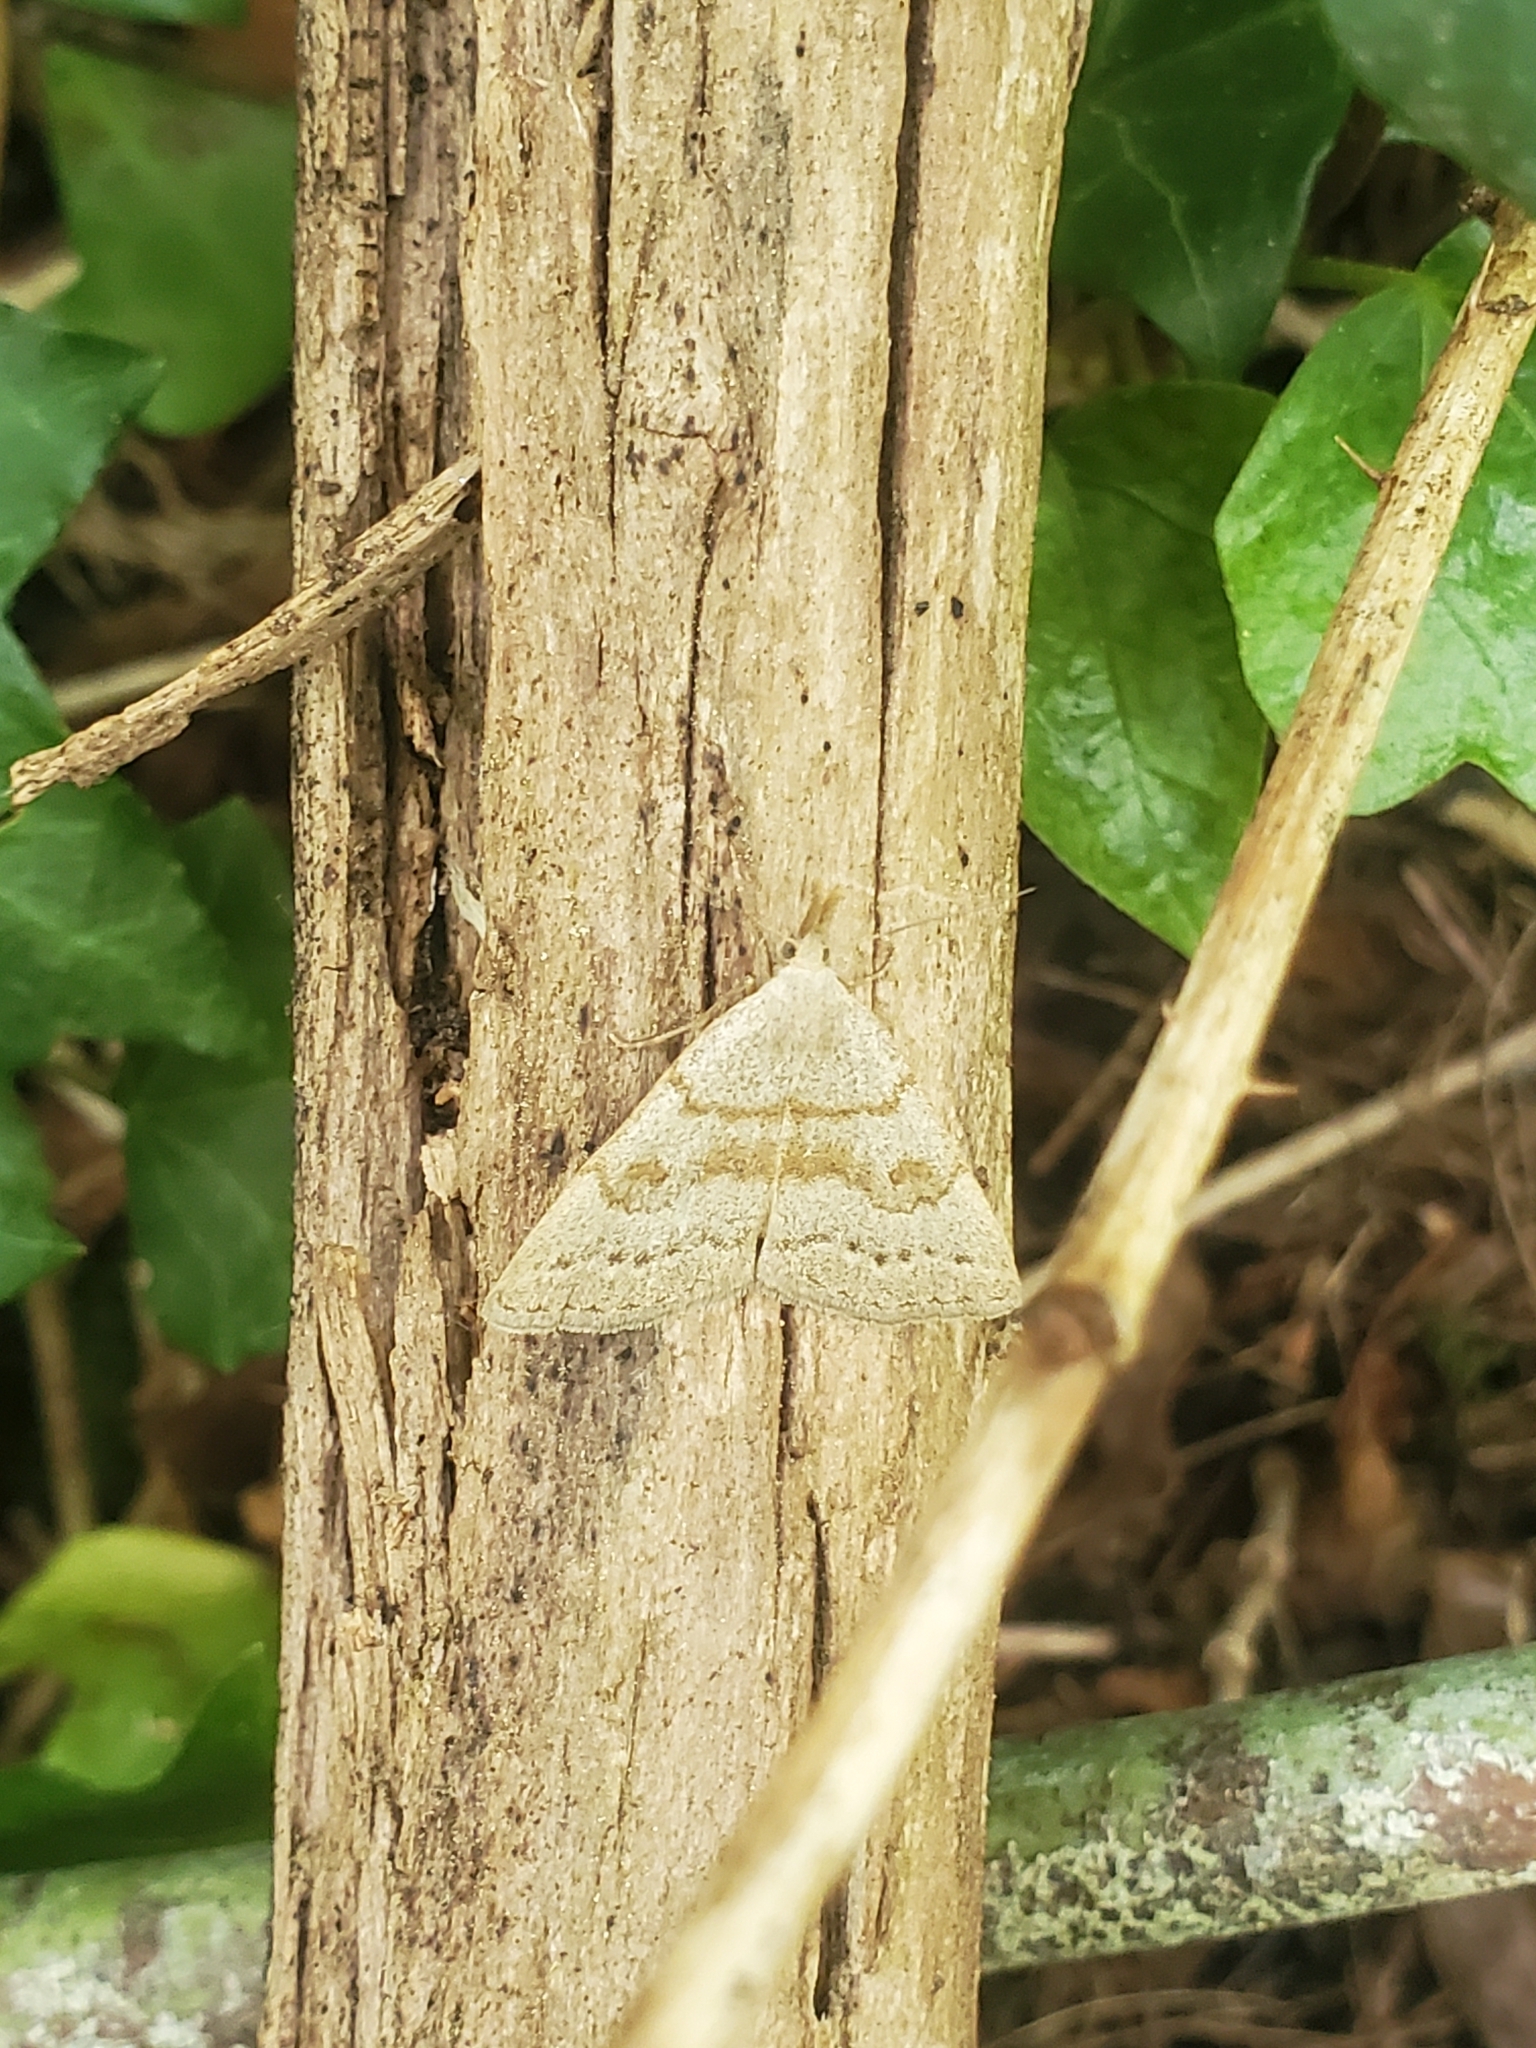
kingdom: Animalia
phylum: Arthropoda
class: Insecta
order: Lepidoptera
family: Erebidae
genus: Macrochilo
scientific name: Macrochilo morbidalis
